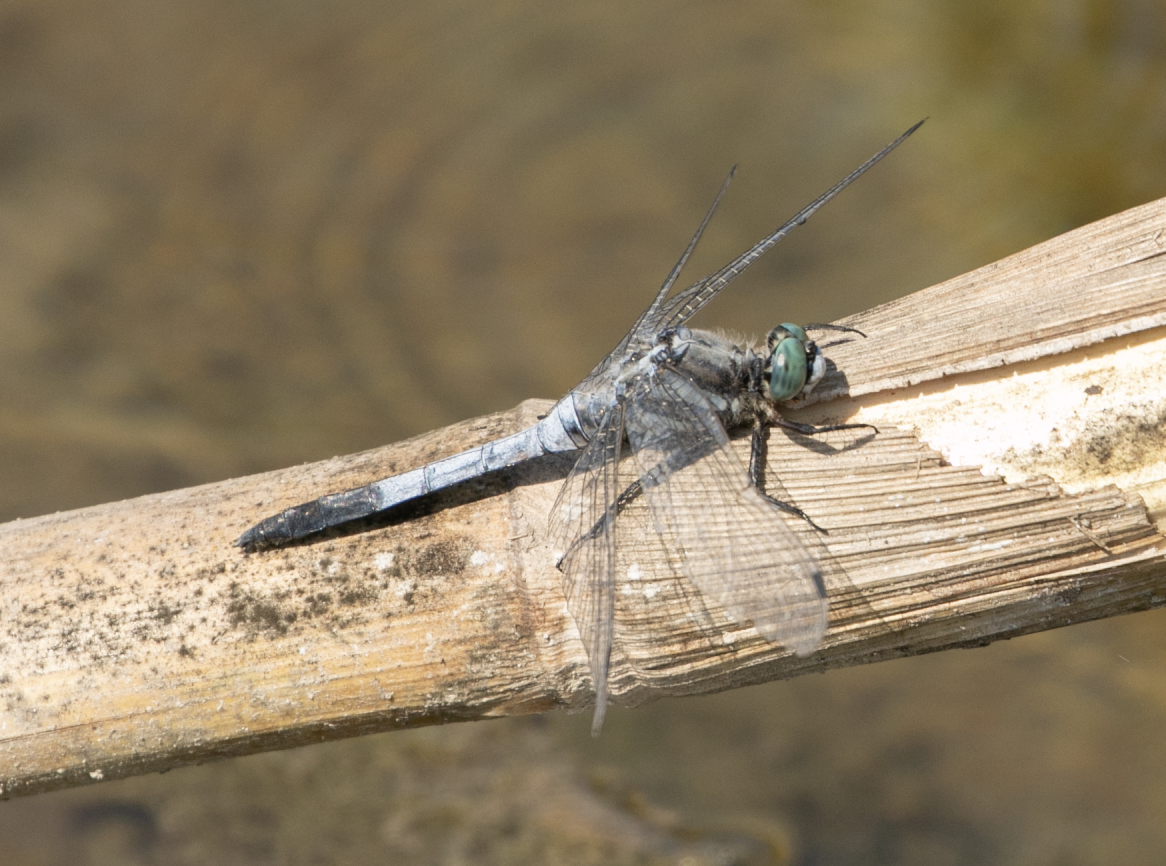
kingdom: Animalia
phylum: Arthropoda
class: Insecta
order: Odonata
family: Libellulidae
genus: Orthetrum
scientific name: Orthetrum albistylum
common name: White-tailed skimmer
